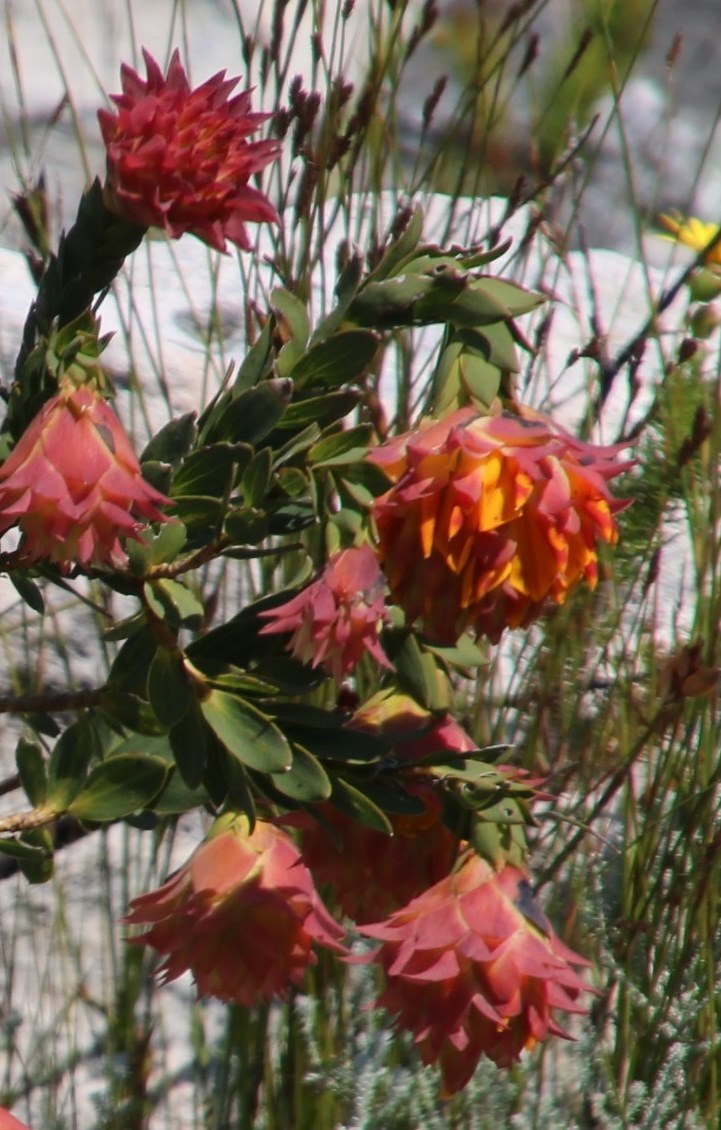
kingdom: Plantae
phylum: Tracheophyta
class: Magnoliopsida
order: Fabales
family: Fabaceae
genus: Liparia
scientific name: Liparia splendens
